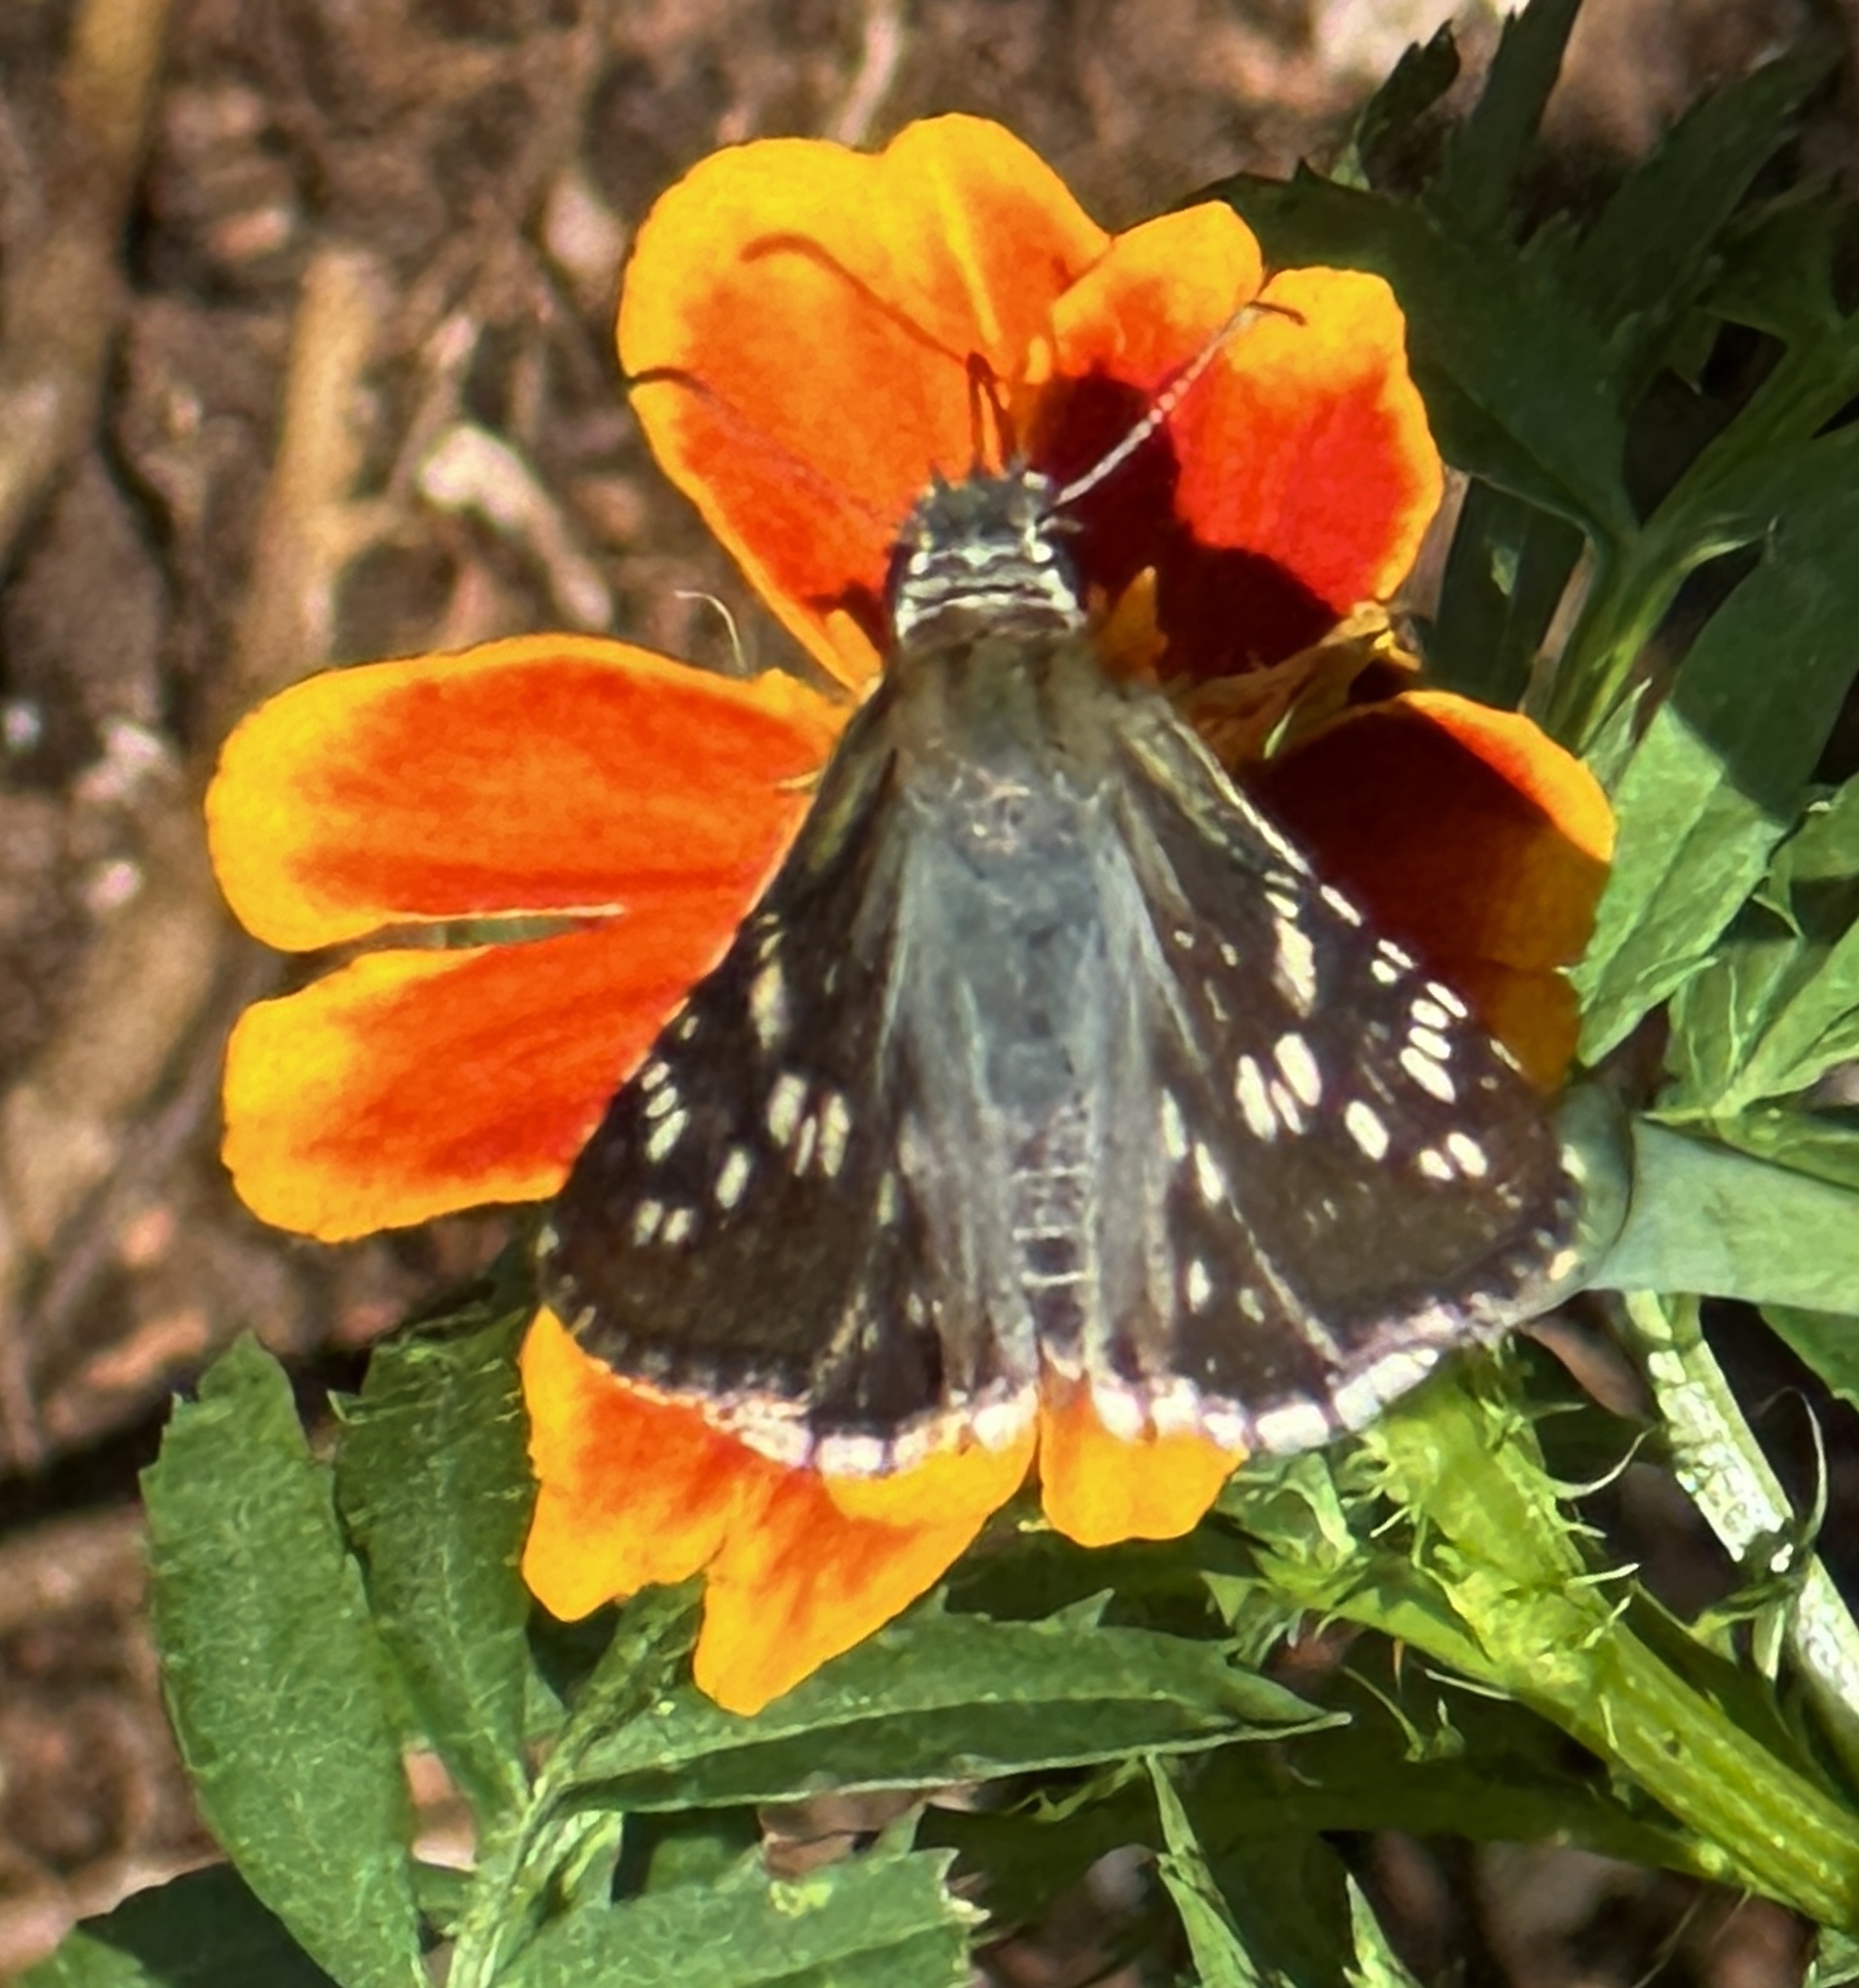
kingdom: Animalia
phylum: Arthropoda
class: Insecta
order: Lepidoptera
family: Hesperiidae
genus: Burnsius
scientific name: Burnsius communis
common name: Common checkered-skipper
